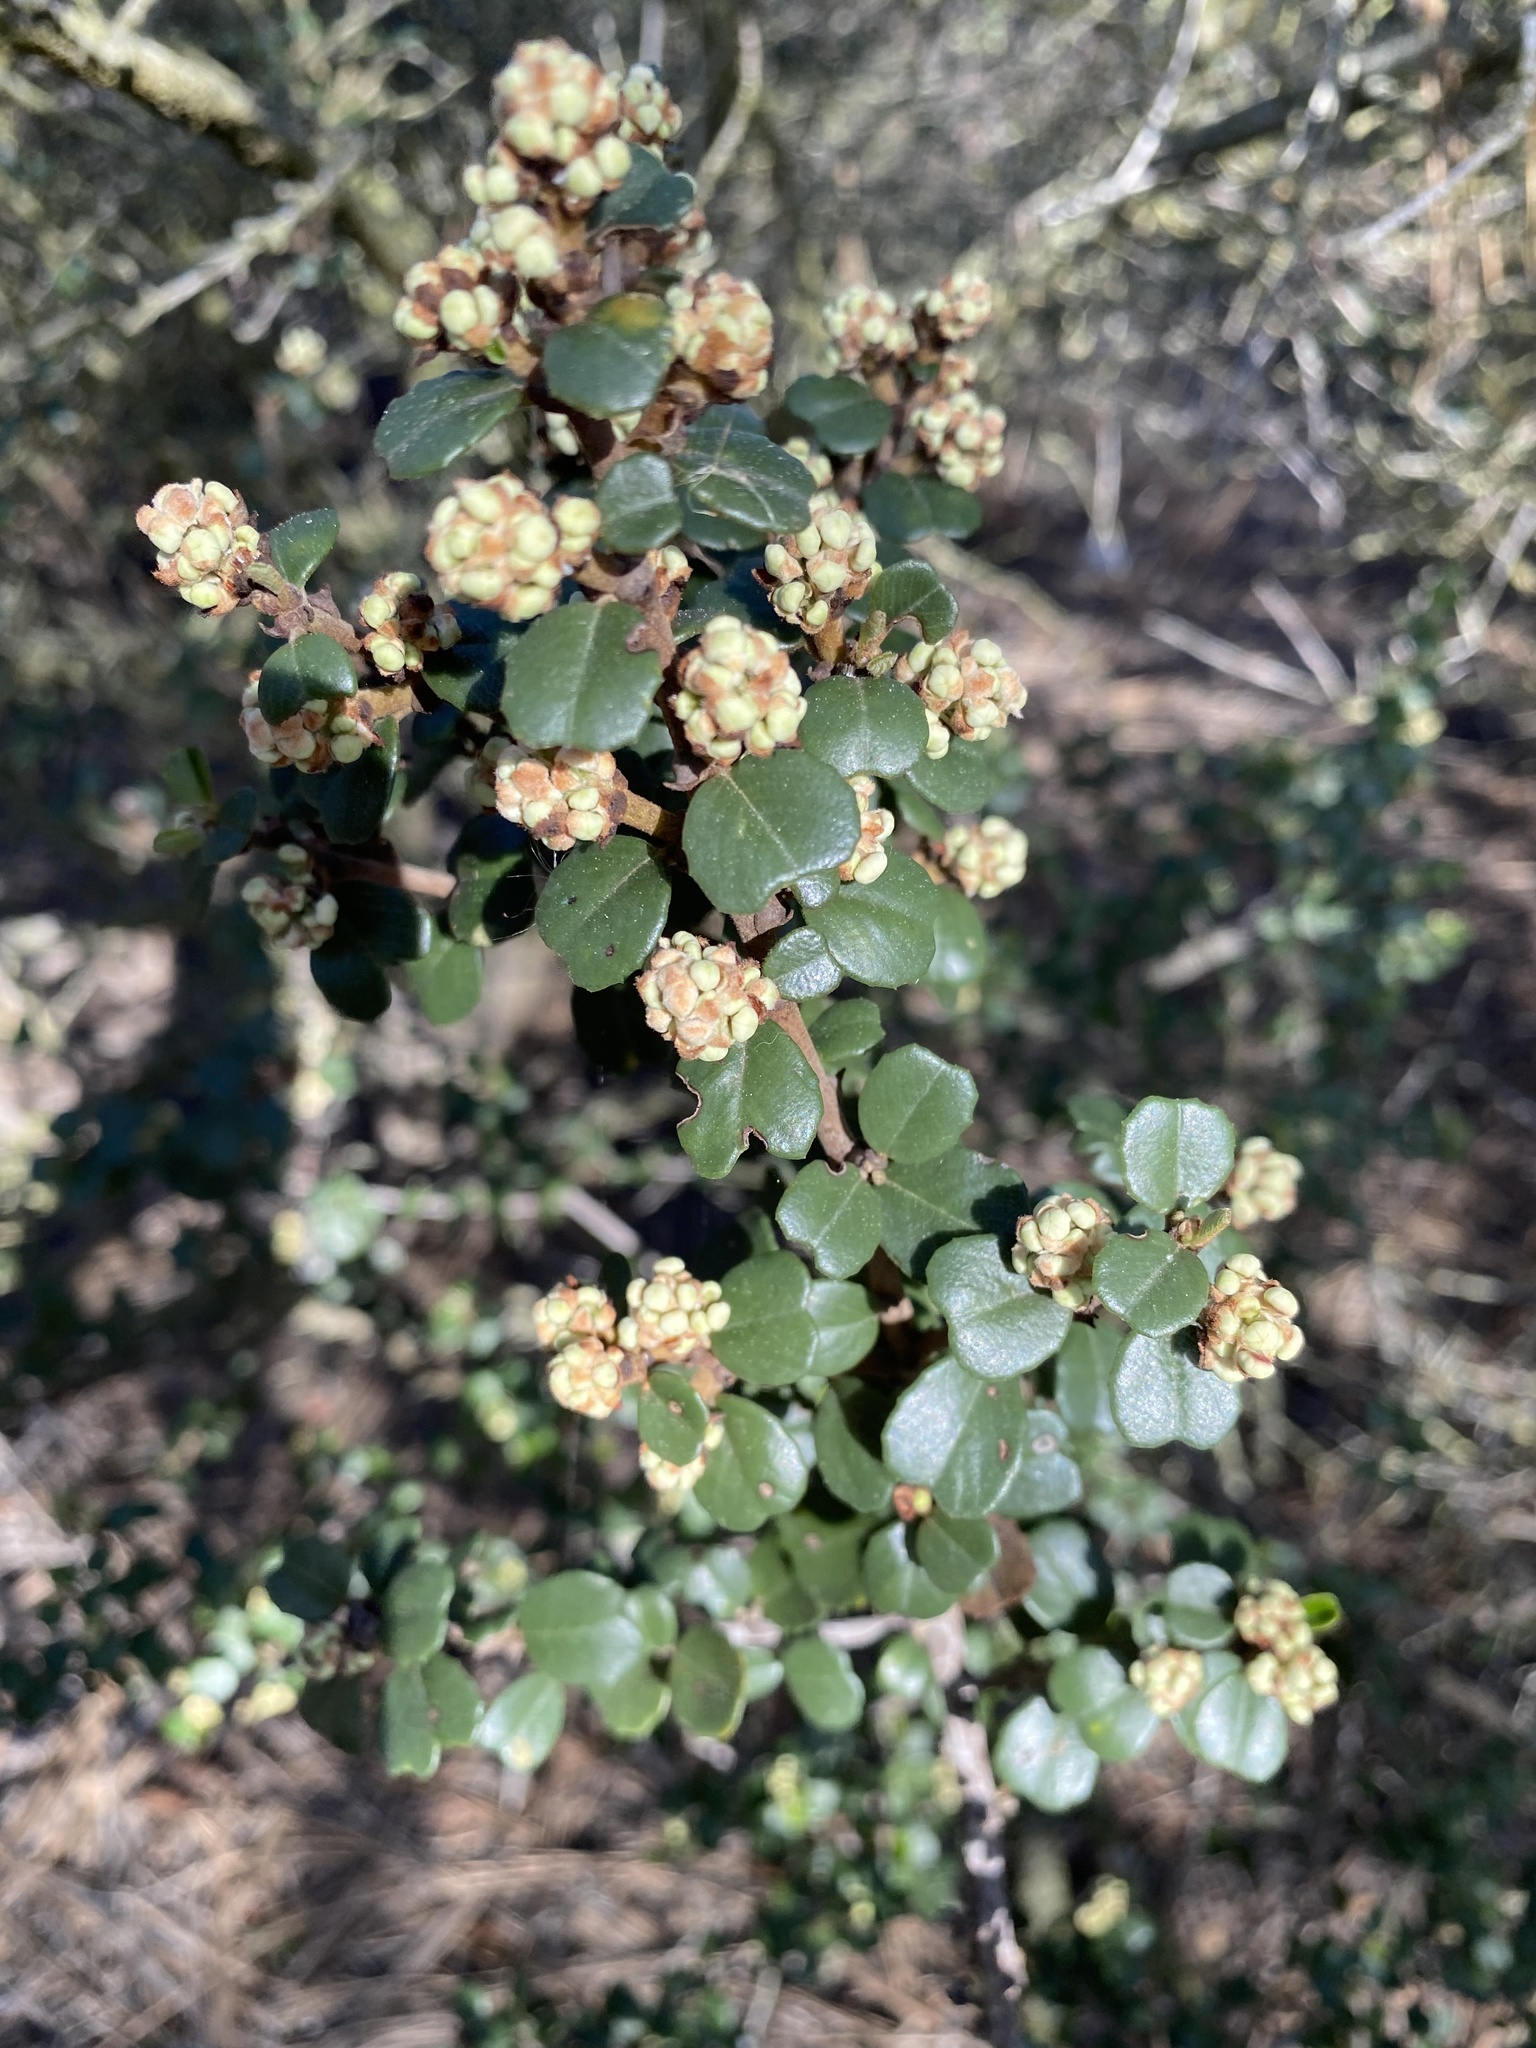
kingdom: Plantae
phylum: Tracheophyta
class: Magnoliopsida
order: Rosales
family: Rhamnaceae
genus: Ceanothus
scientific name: Ceanothus verrucosus
